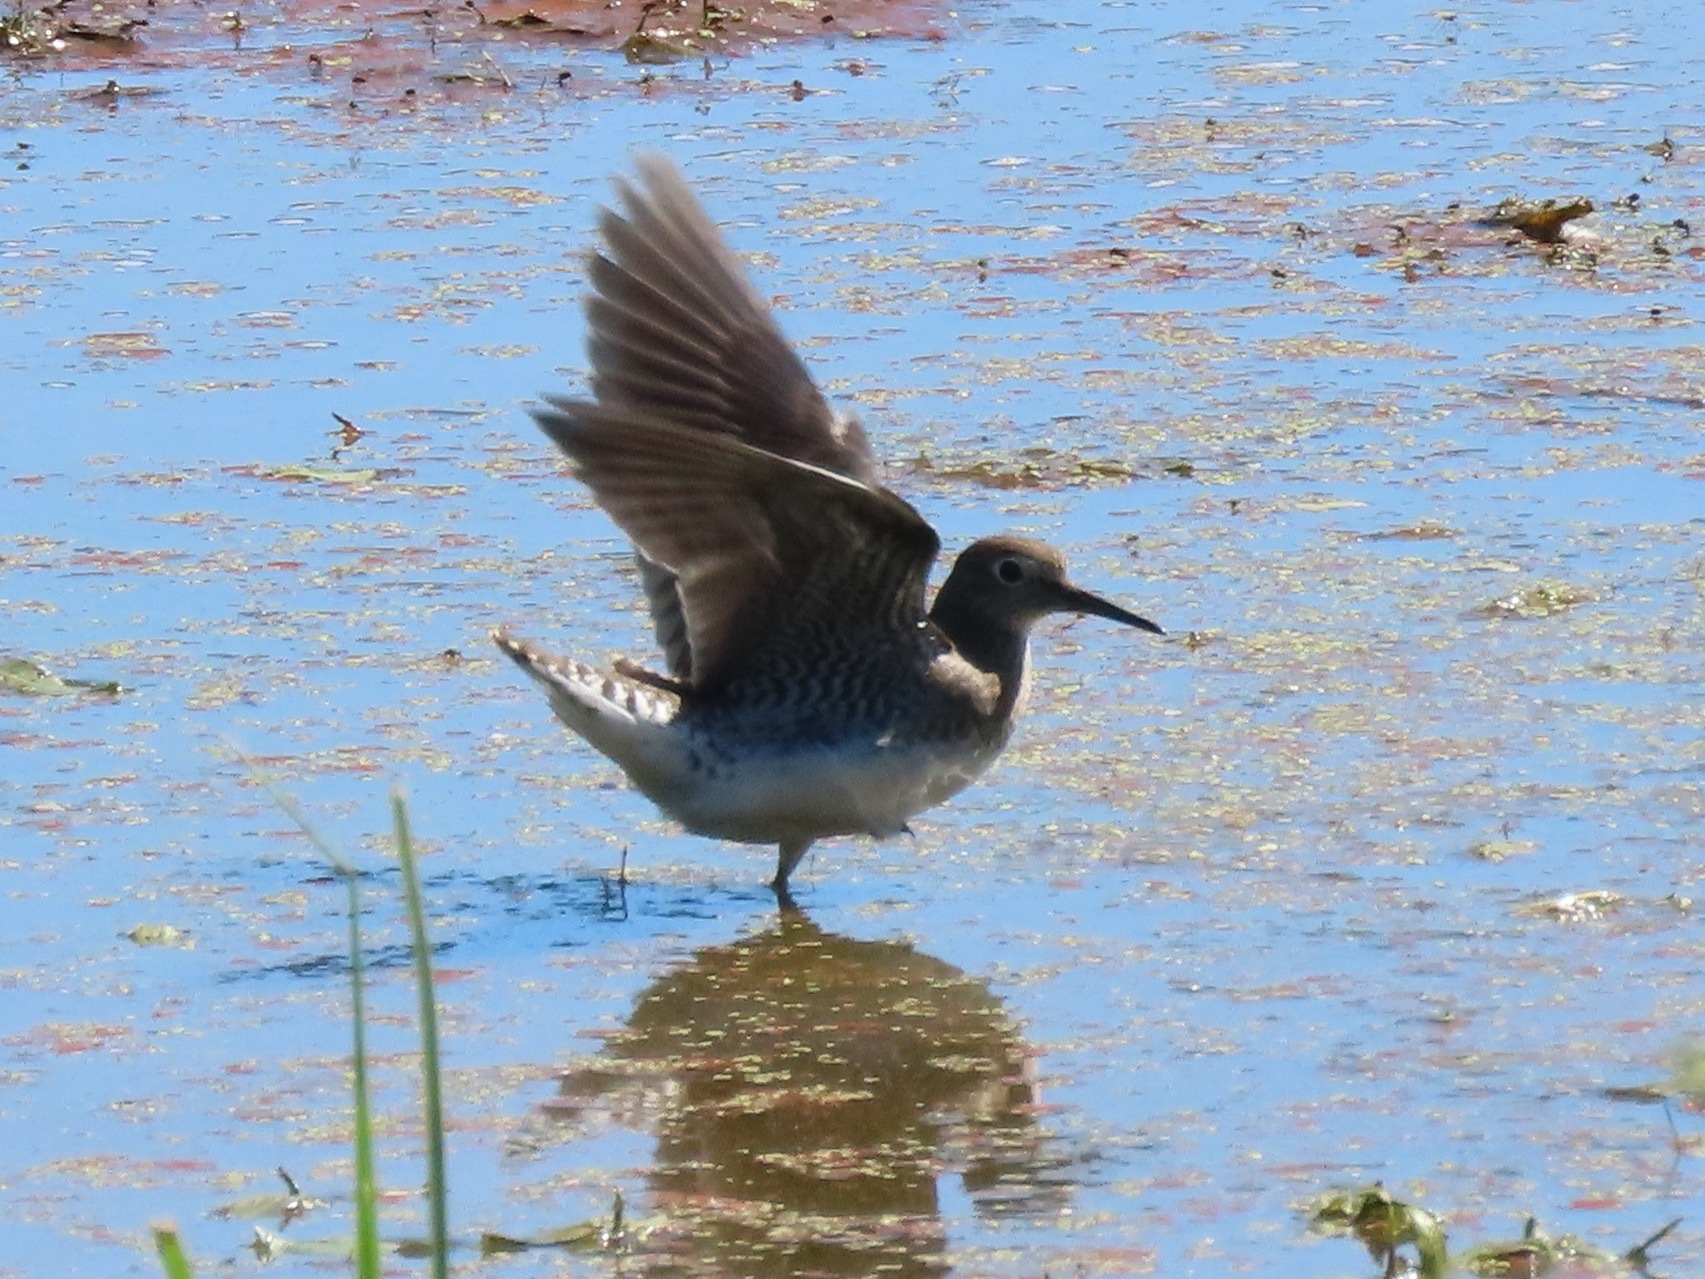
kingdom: Animalia
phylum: Chordata
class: Aves
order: Charadriiformes
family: Scolopacidae
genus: Tringa
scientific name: Tringa solitaria
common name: Solitary sandpiper
